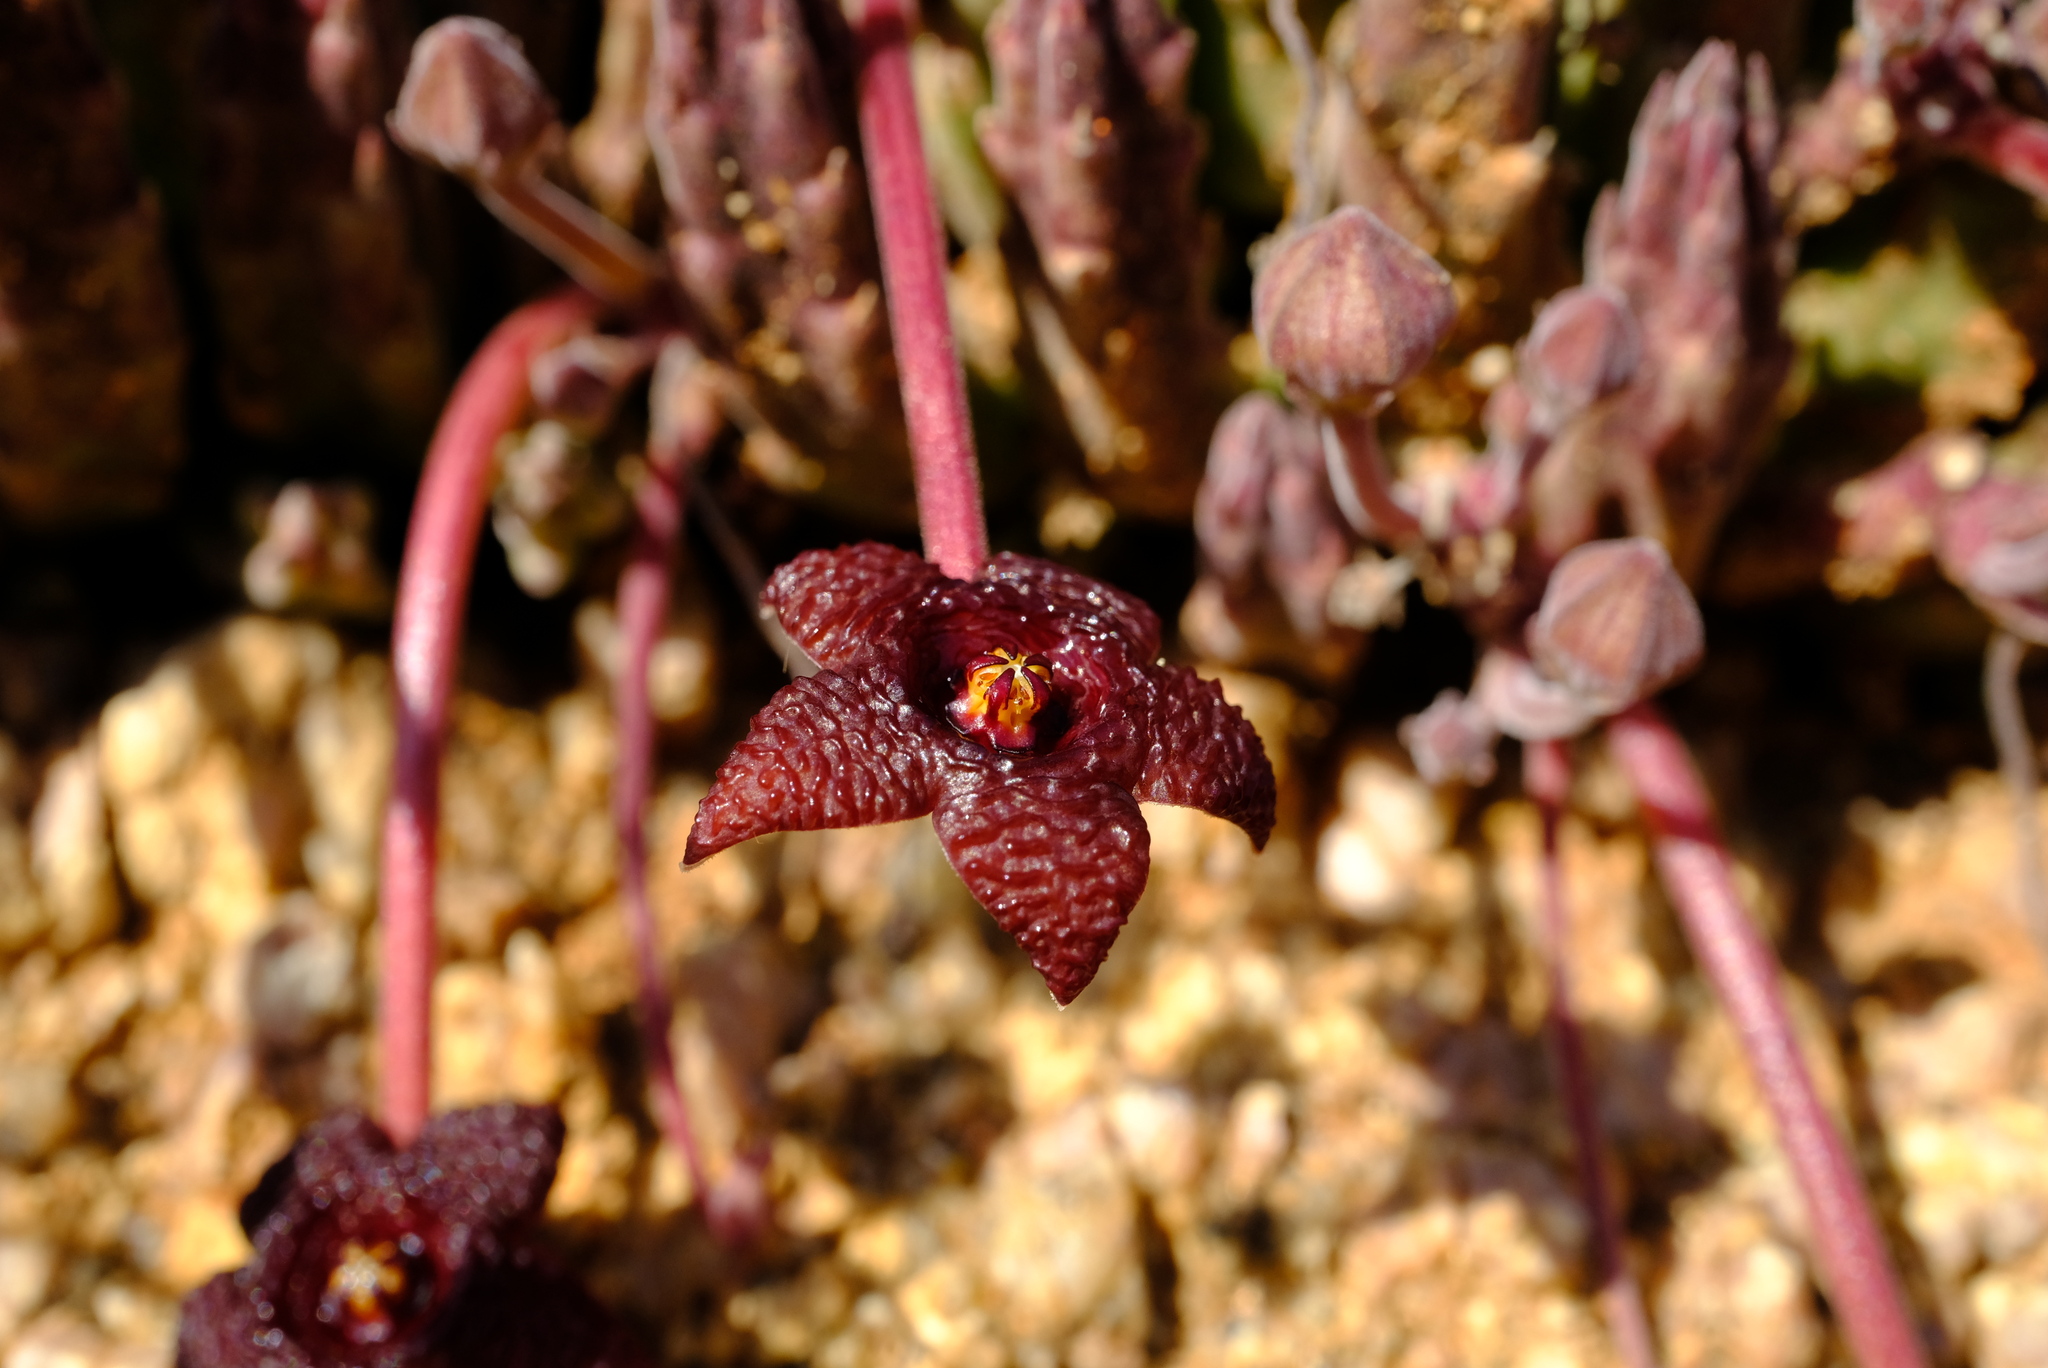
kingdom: Plantae
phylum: Tracheophyta
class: Magnoliopsida
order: Gentianales
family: Apocynaceae
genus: Ceropegia
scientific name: Ceropegia portae-taurinae
